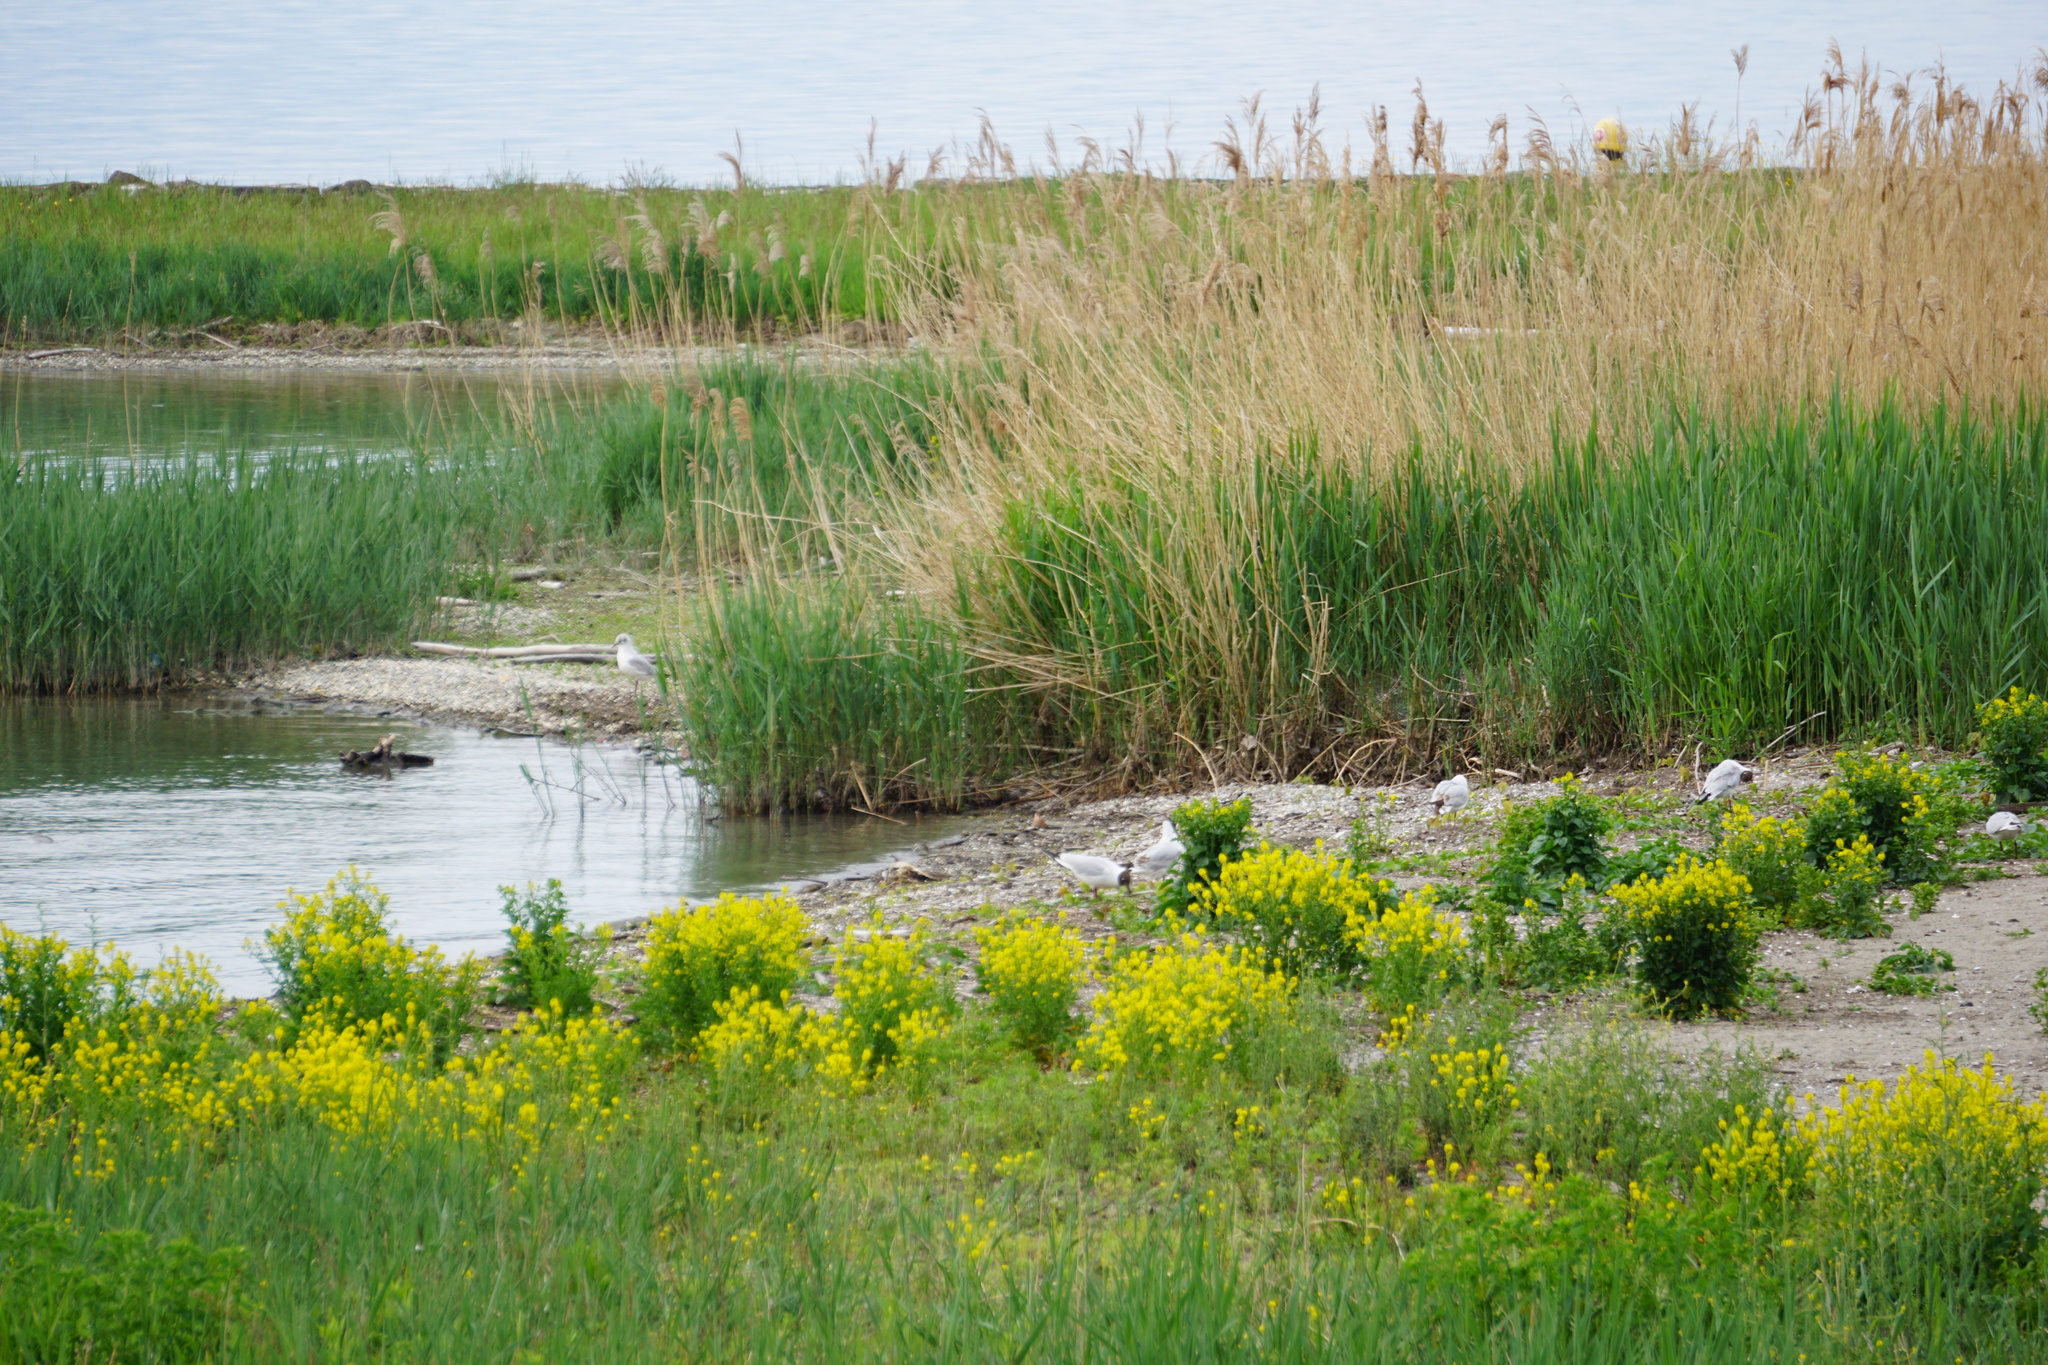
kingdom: Animalia
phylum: Chordata
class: Aves
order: Charadriiformes
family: Laridae
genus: Chroicocephalus
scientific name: Chroicocephalus ridibundus
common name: Black-headed gull
